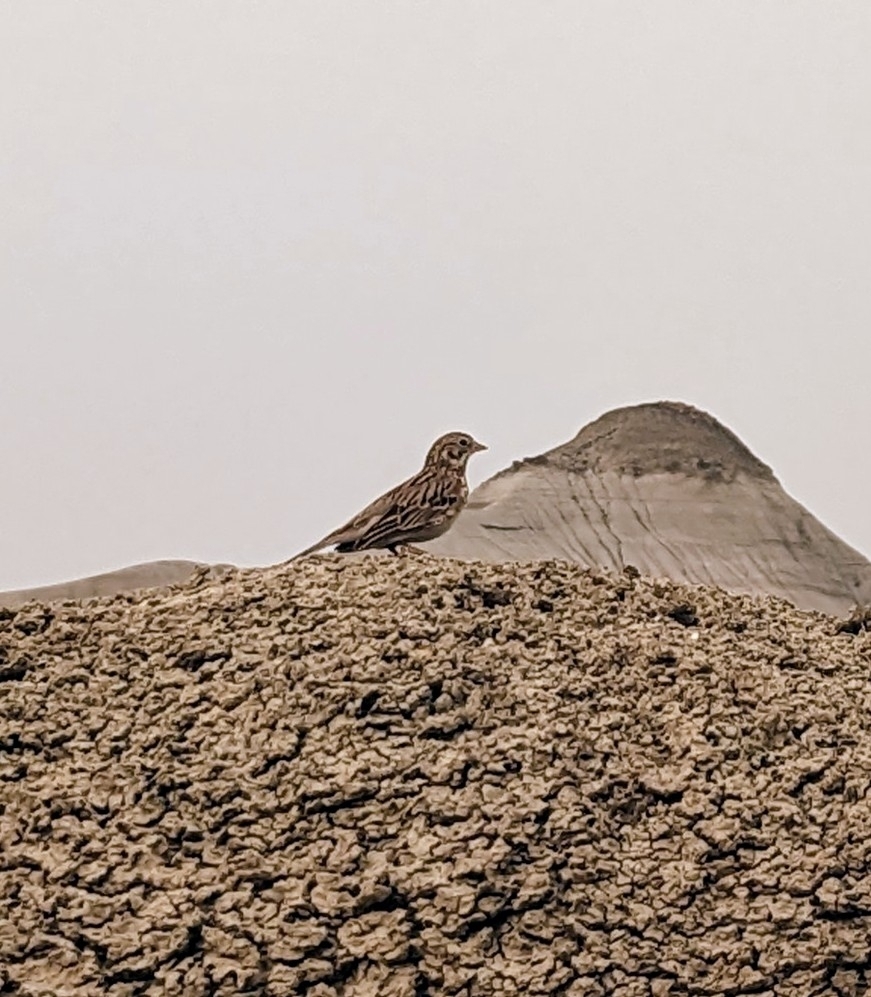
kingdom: Animalia
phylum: Chordata
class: Aves
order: Passeriformes
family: Passerellidae
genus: Pooecetes
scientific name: Pooecetes gramineus
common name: Vesper sparrow
